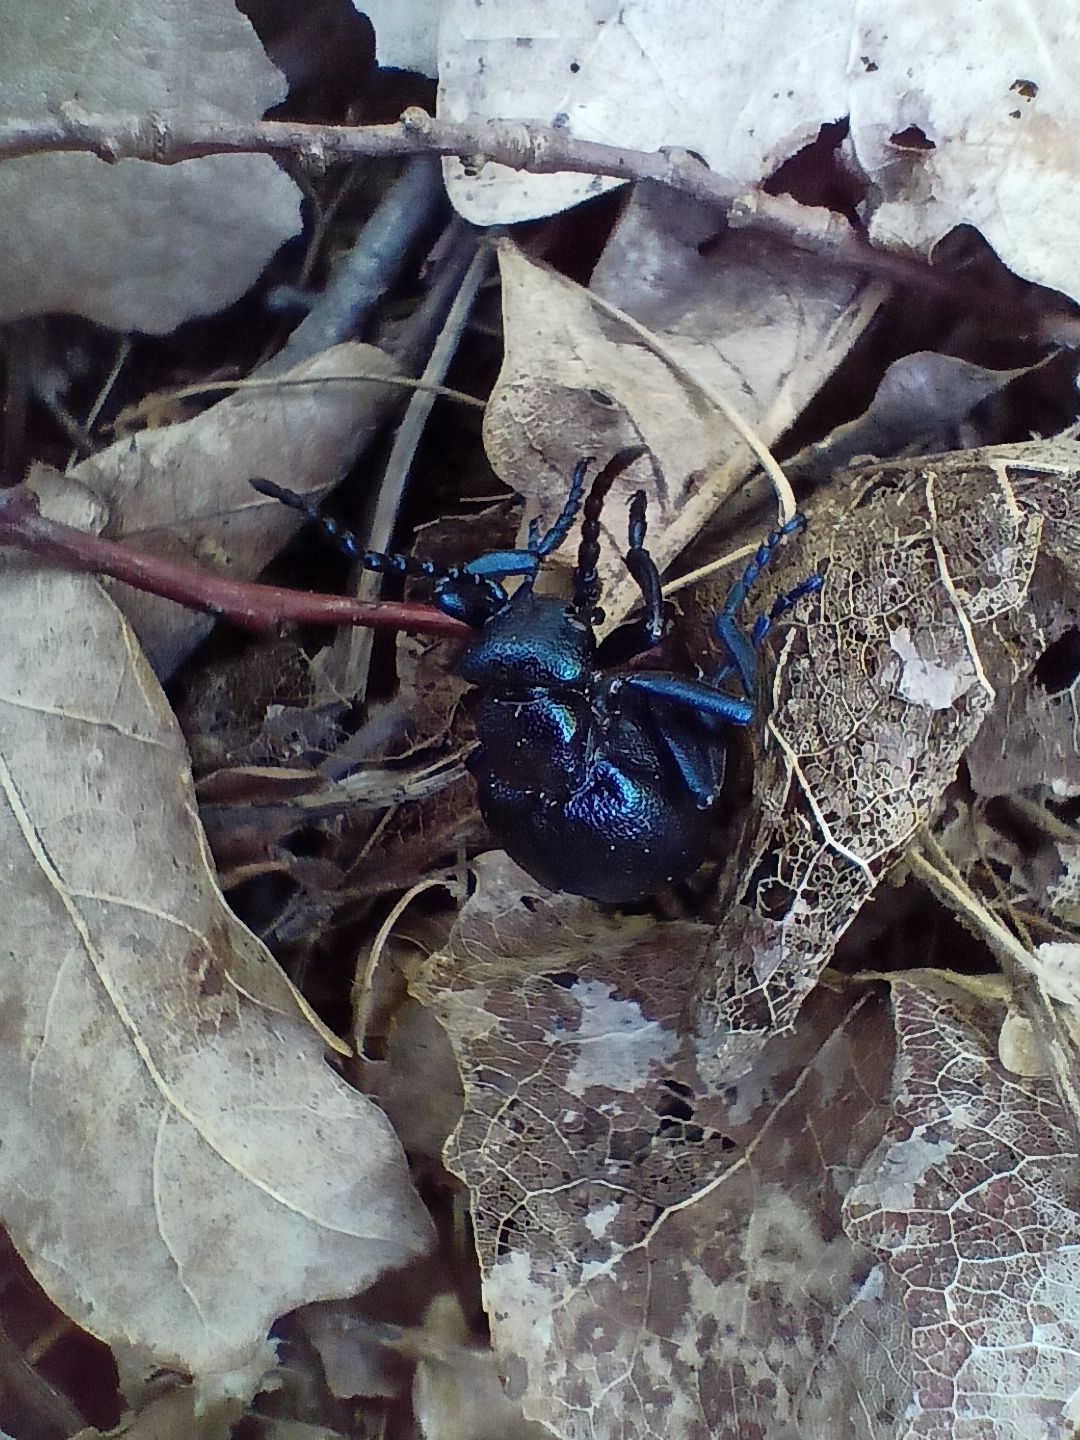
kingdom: Animalia
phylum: Arthropoda
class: Insecta
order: Coleoptera
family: Meloidae
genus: Meloe
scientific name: Meloe violaceus
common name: Violet oil-beetle
